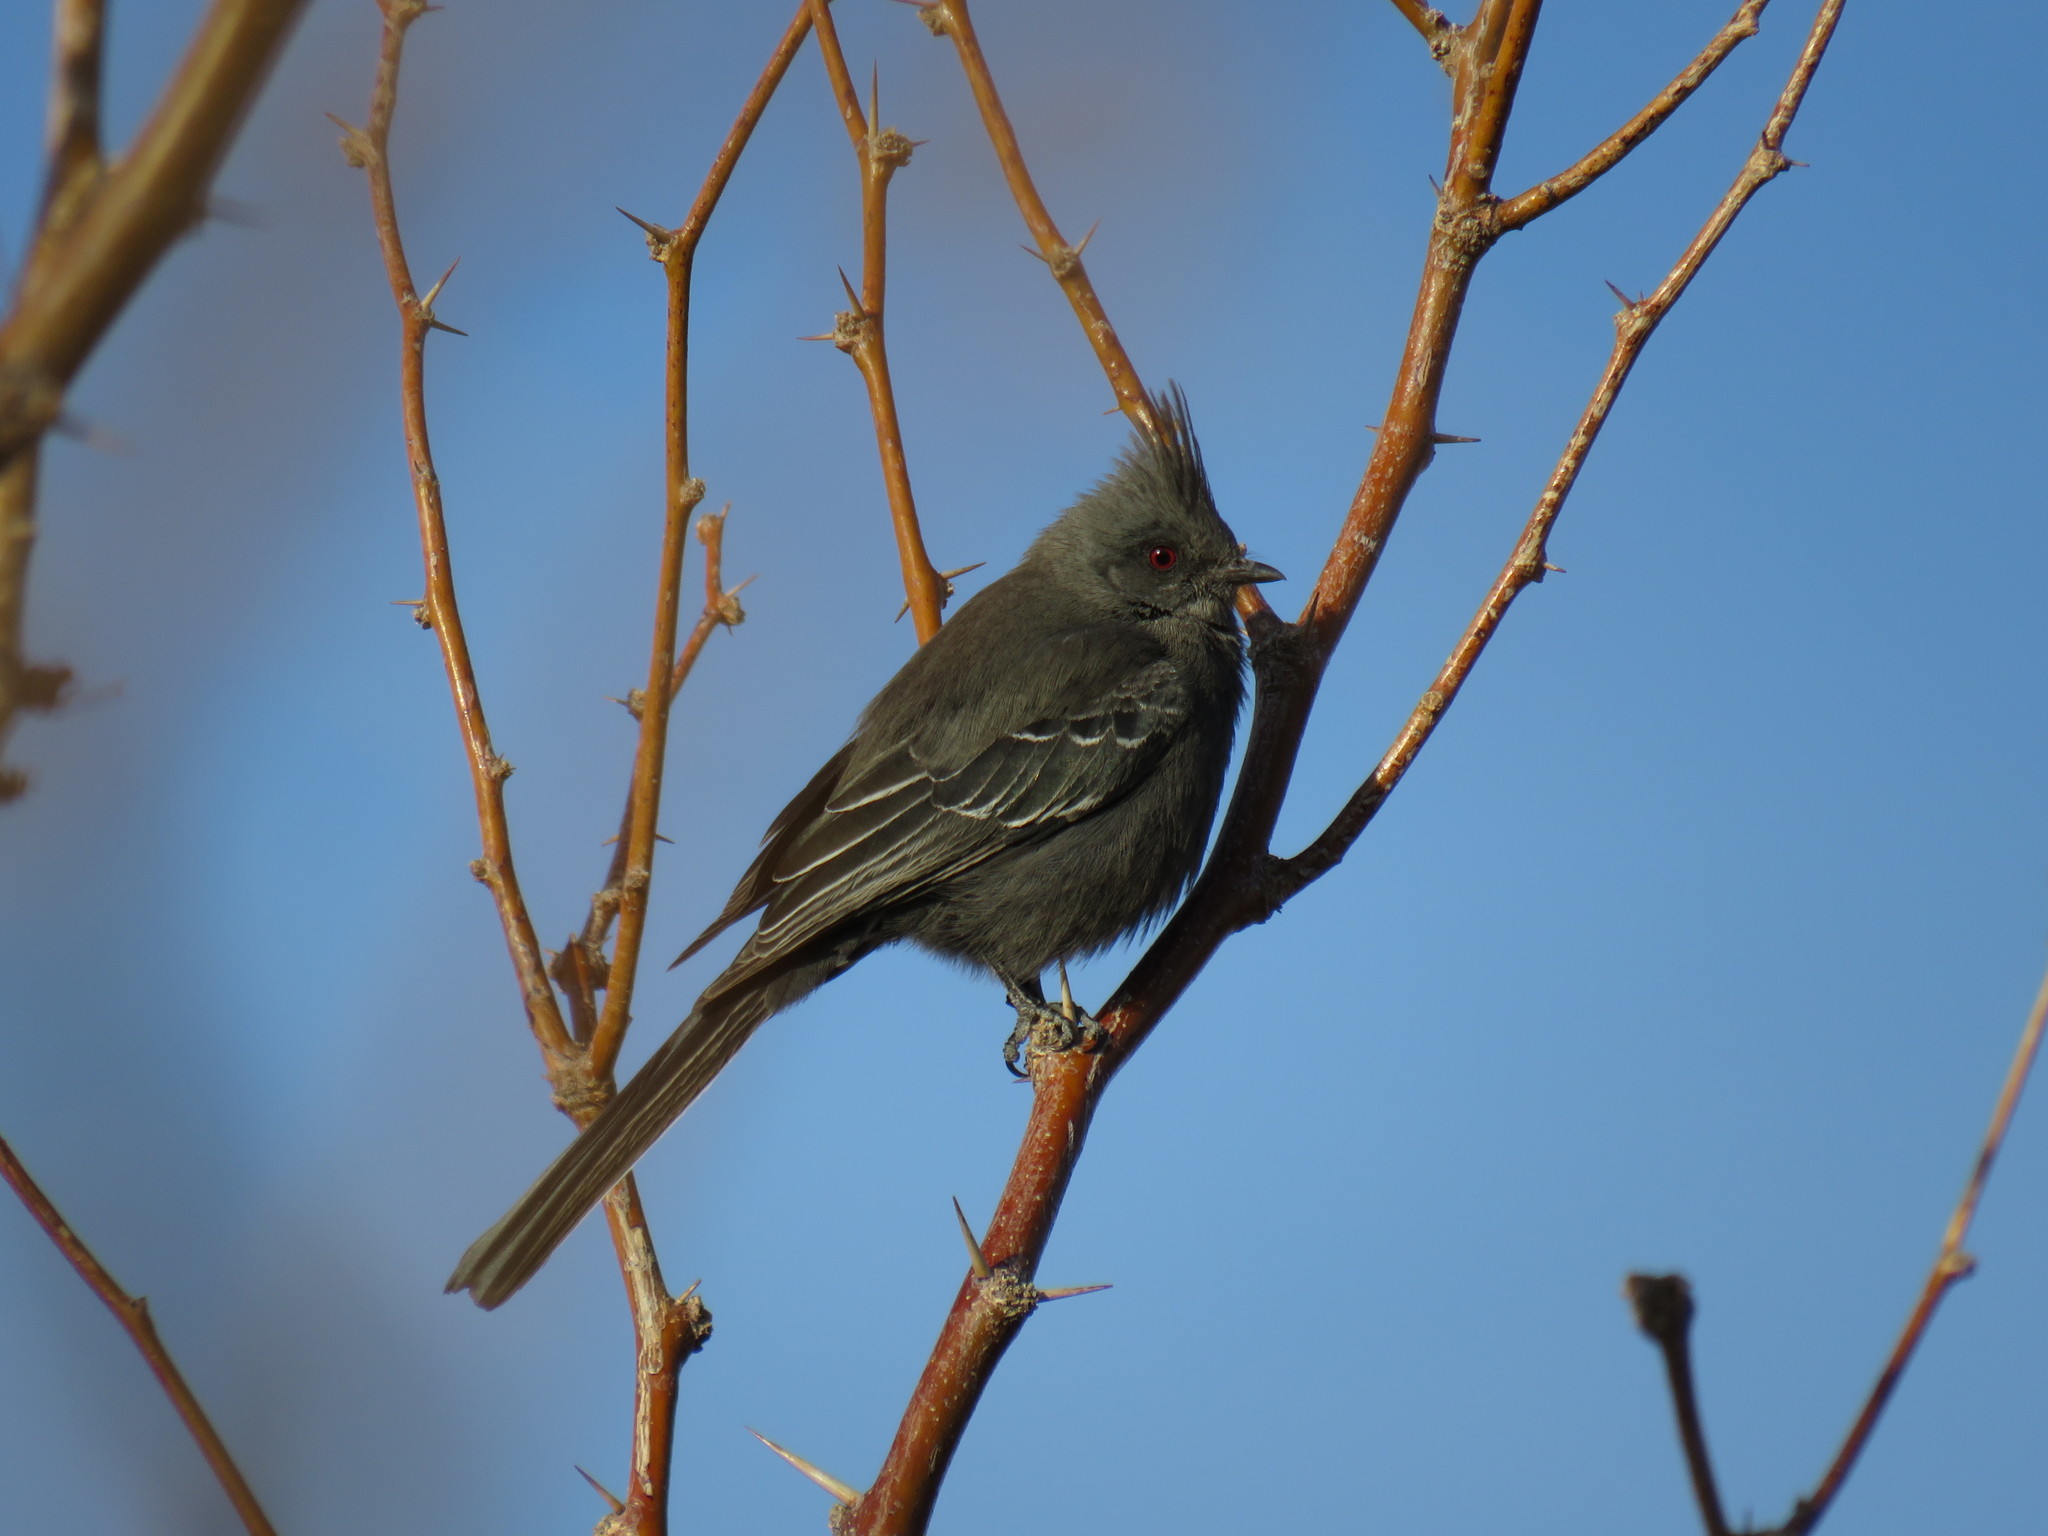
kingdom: Animalia
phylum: Chordata
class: Aves
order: Passeriformes
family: Ptilogonatidae
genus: Phainopepla
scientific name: Phainopepla nitens
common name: Phainopepla
